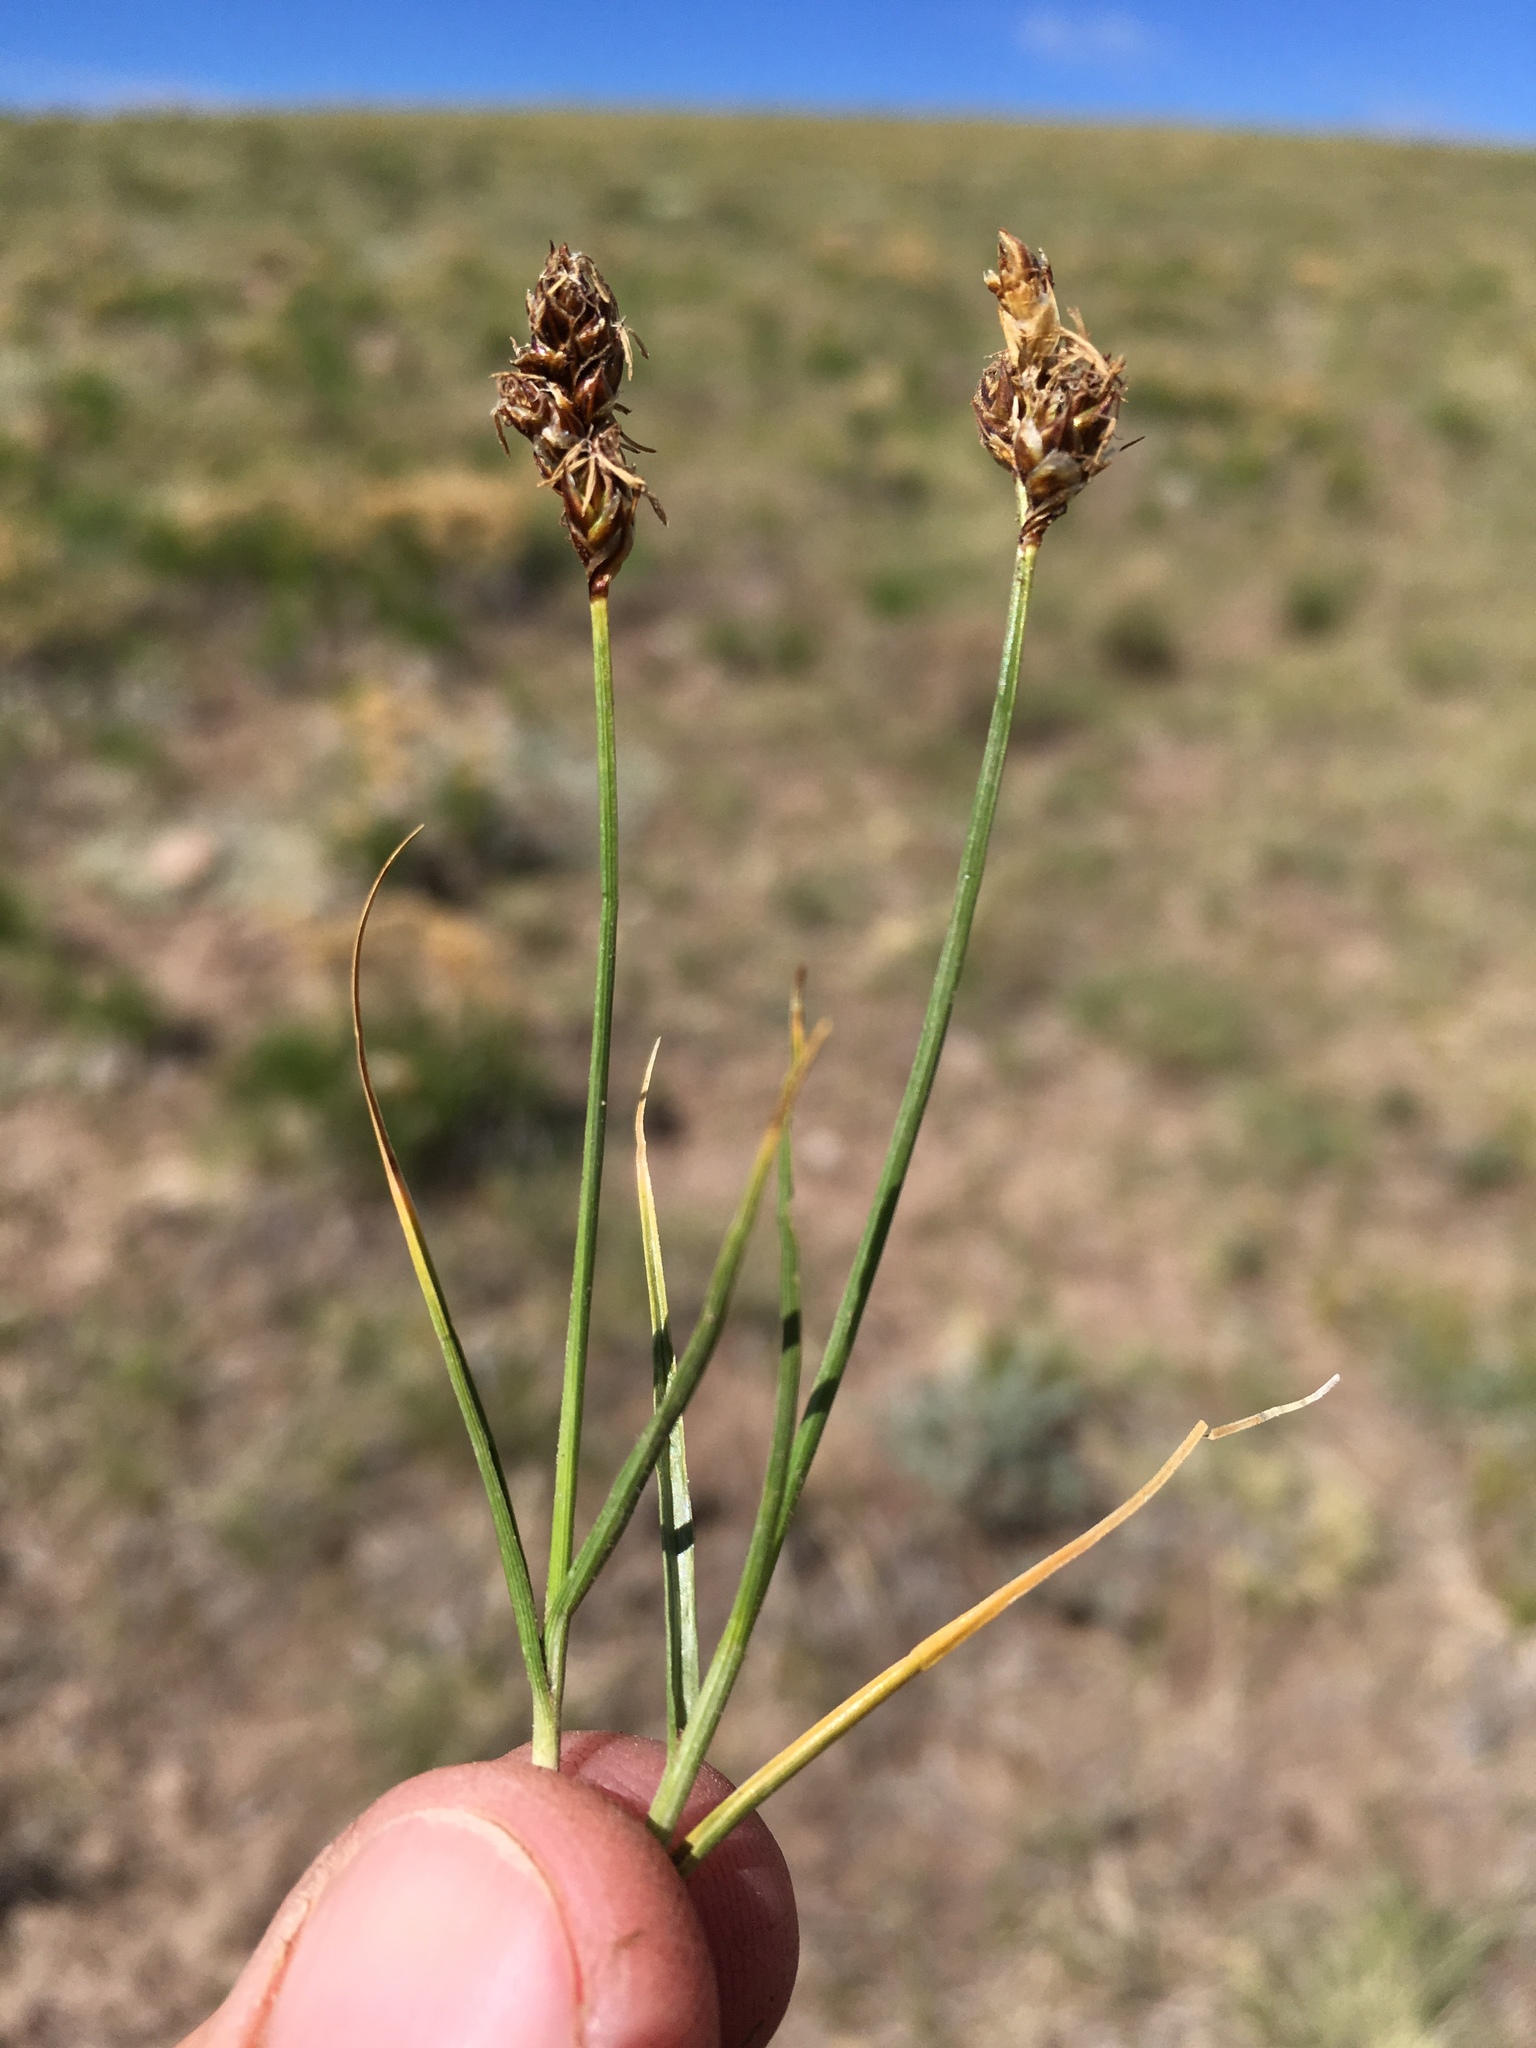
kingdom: Plantae
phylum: Tracheophyta
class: Liliopsida
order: Poales
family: Cyperaceae
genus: Carex
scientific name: Carex duriuscula
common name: Involute-leaved sedge
